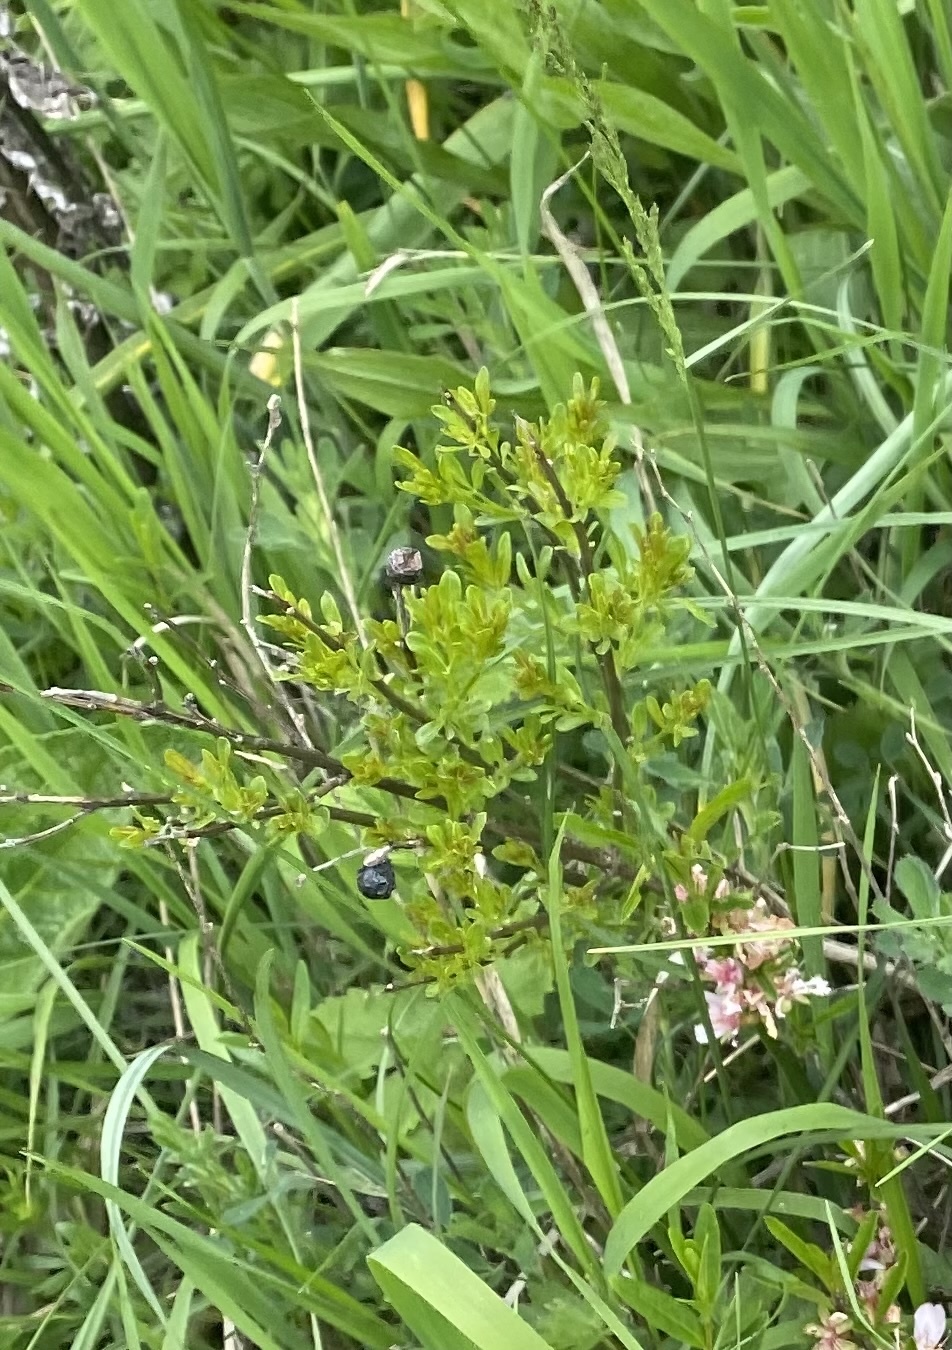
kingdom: Plantae
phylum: Tracheophyta
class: Magnoliopsida
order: Lamiales
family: Oleaceae
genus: Chrysojasminum
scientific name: Chrysojasminum fruticans
